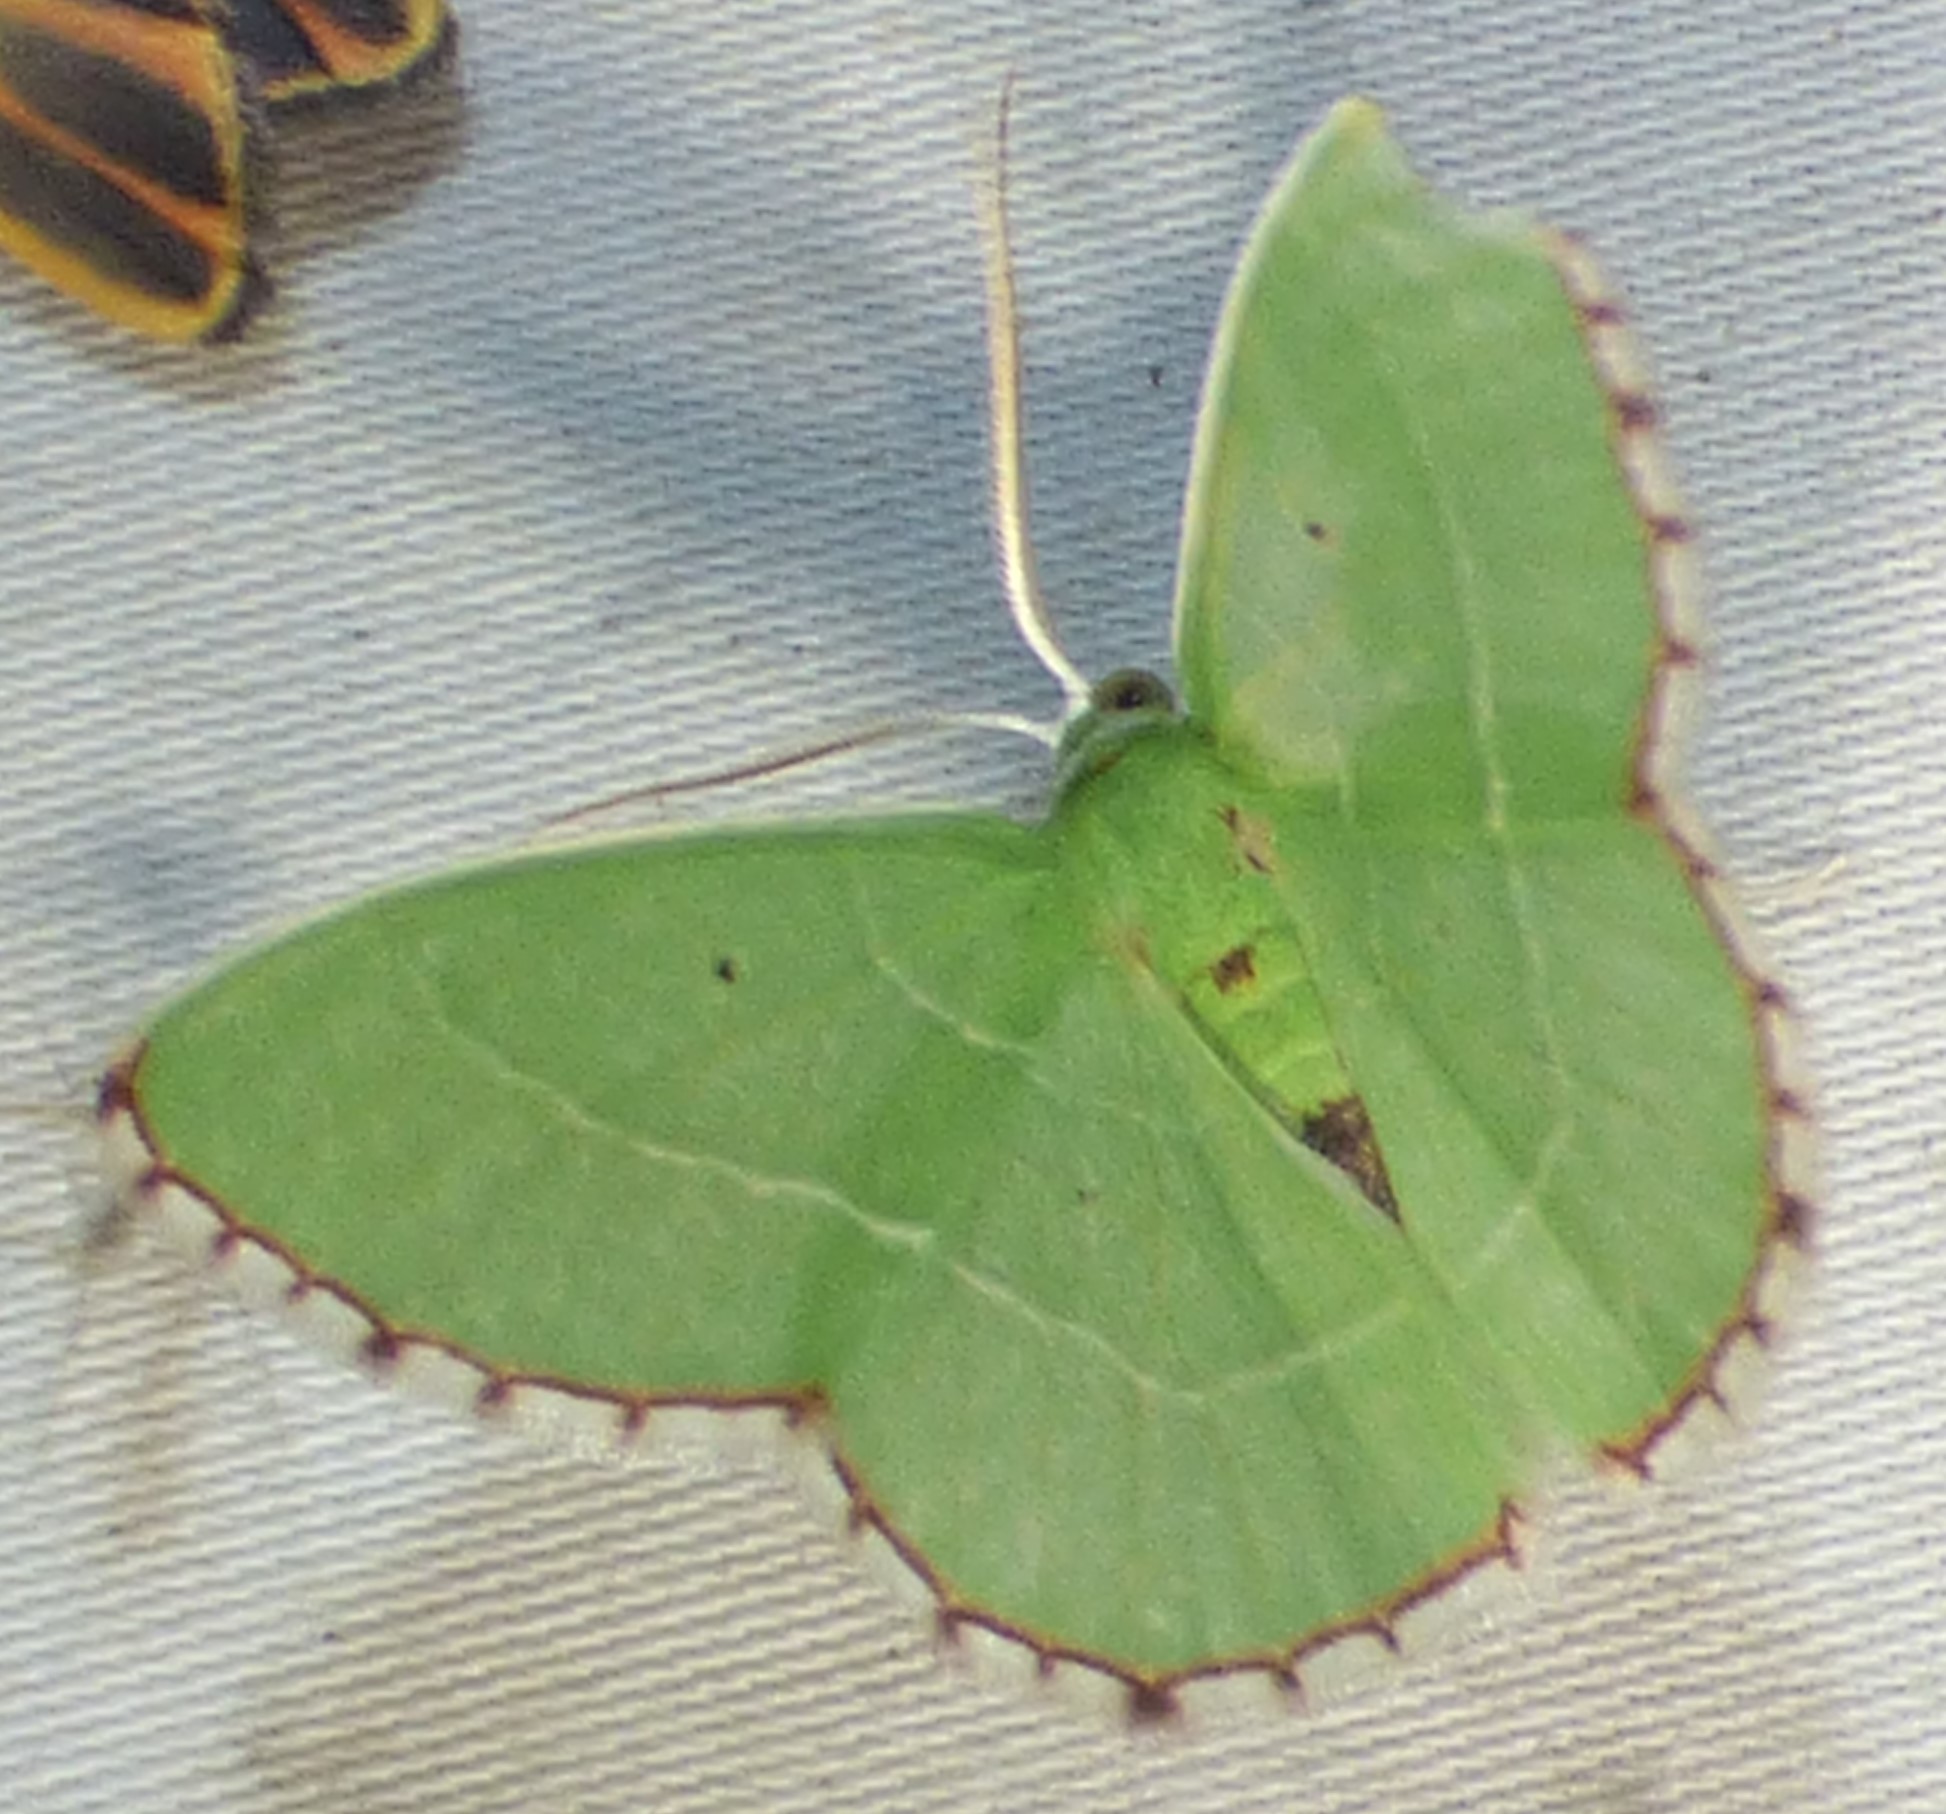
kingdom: Animalia
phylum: Arthropoda
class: Insecta
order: Lepidoptera
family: Geometridae
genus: Nemoria
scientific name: Nemoria saturiba
